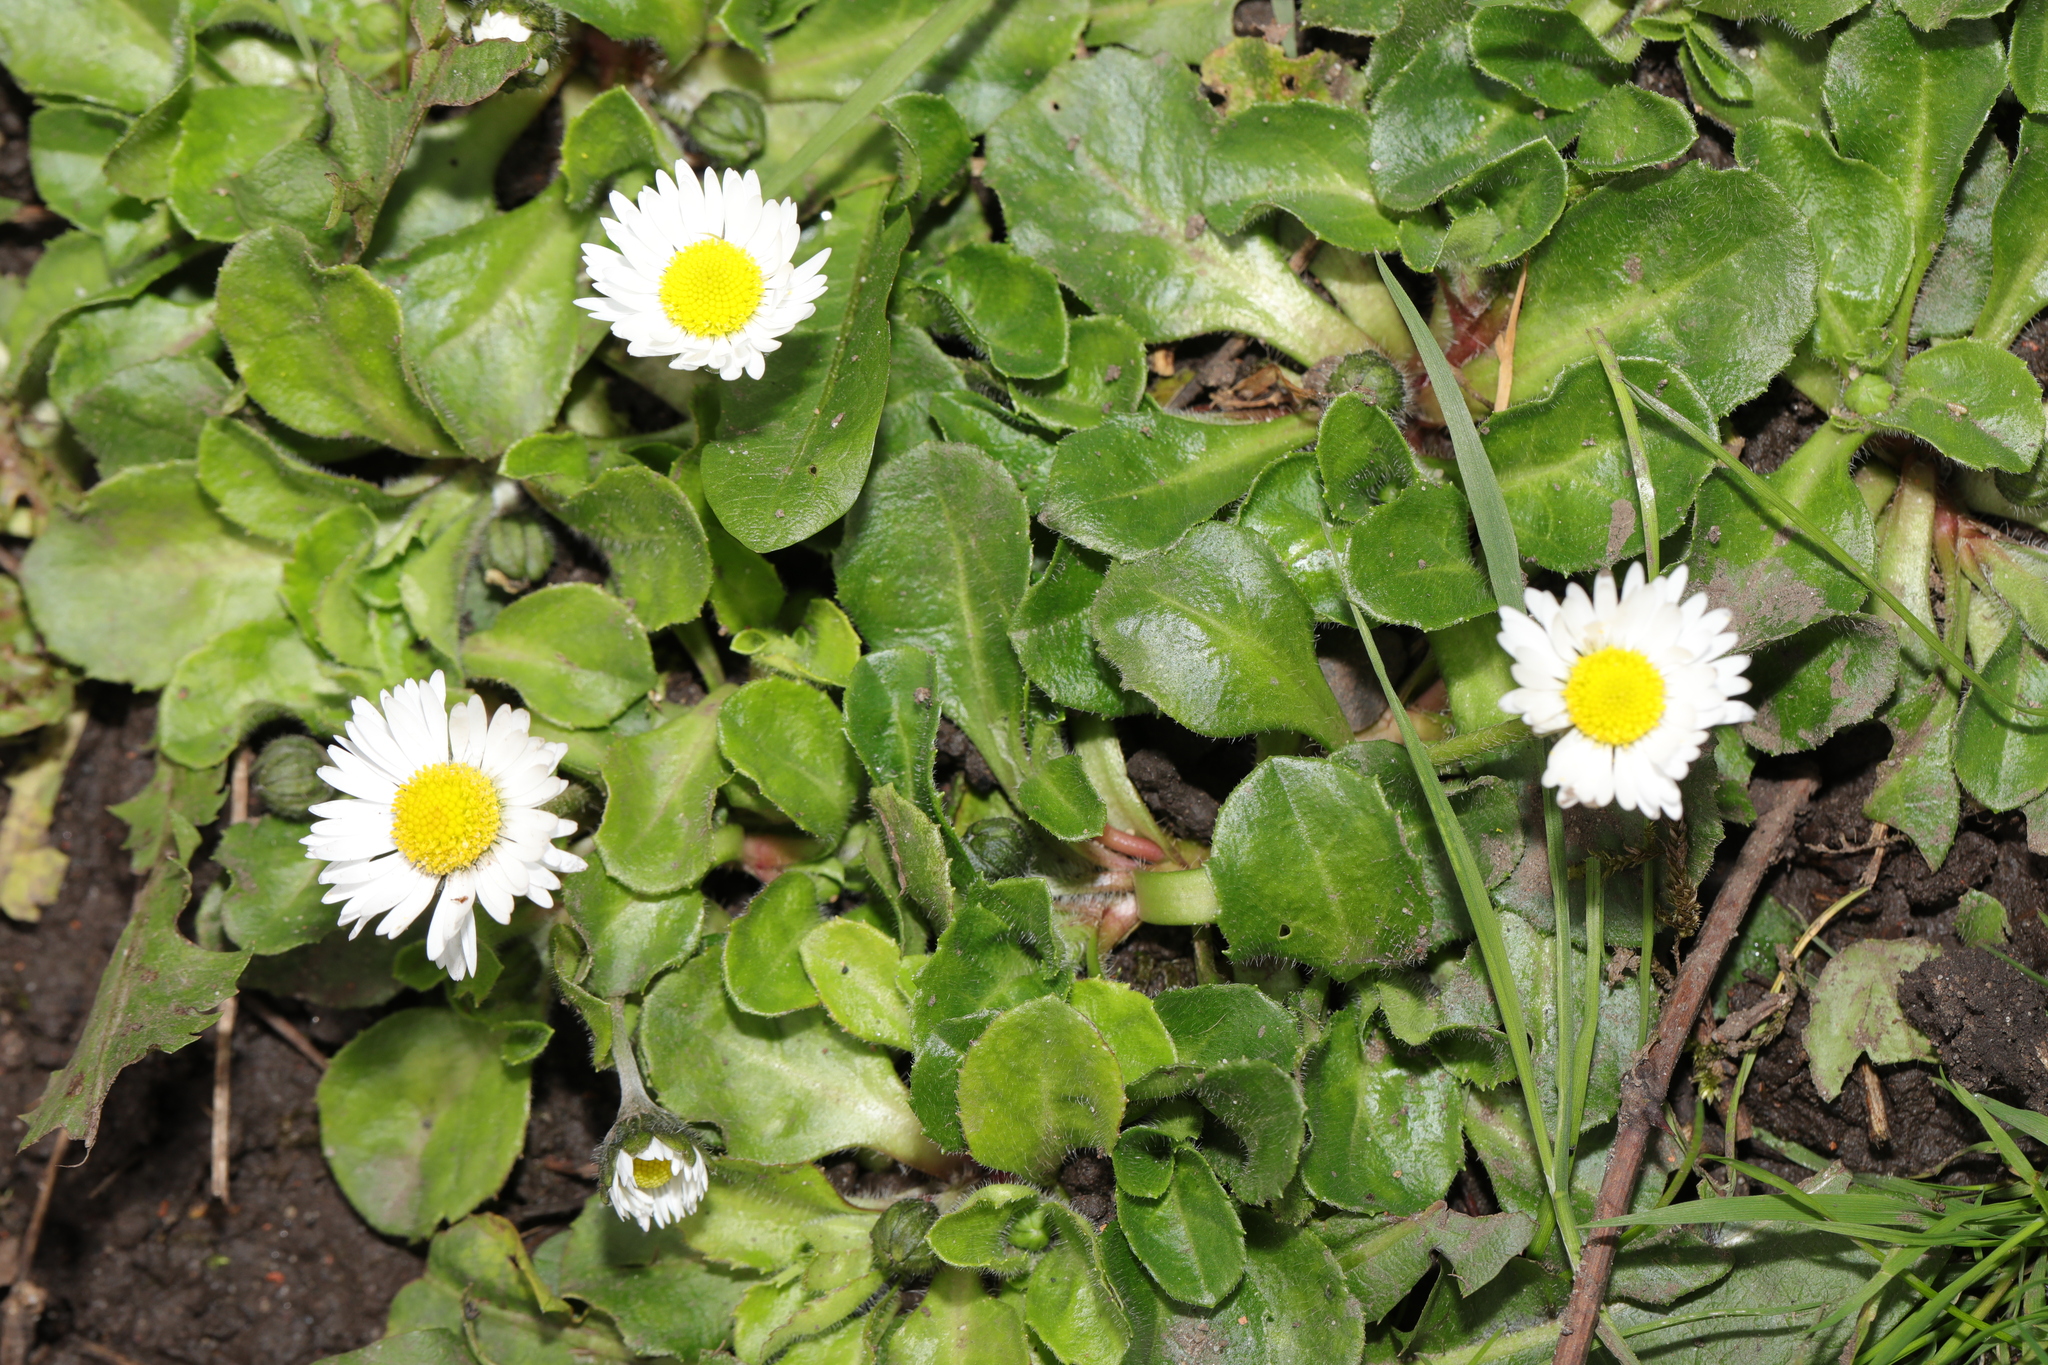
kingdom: Plantae
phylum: Tracheophyta
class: Magnoliopsida
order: Asterales
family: Asteraceae
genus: Bellis
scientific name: Bellis perennis
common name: Lawndaisy
